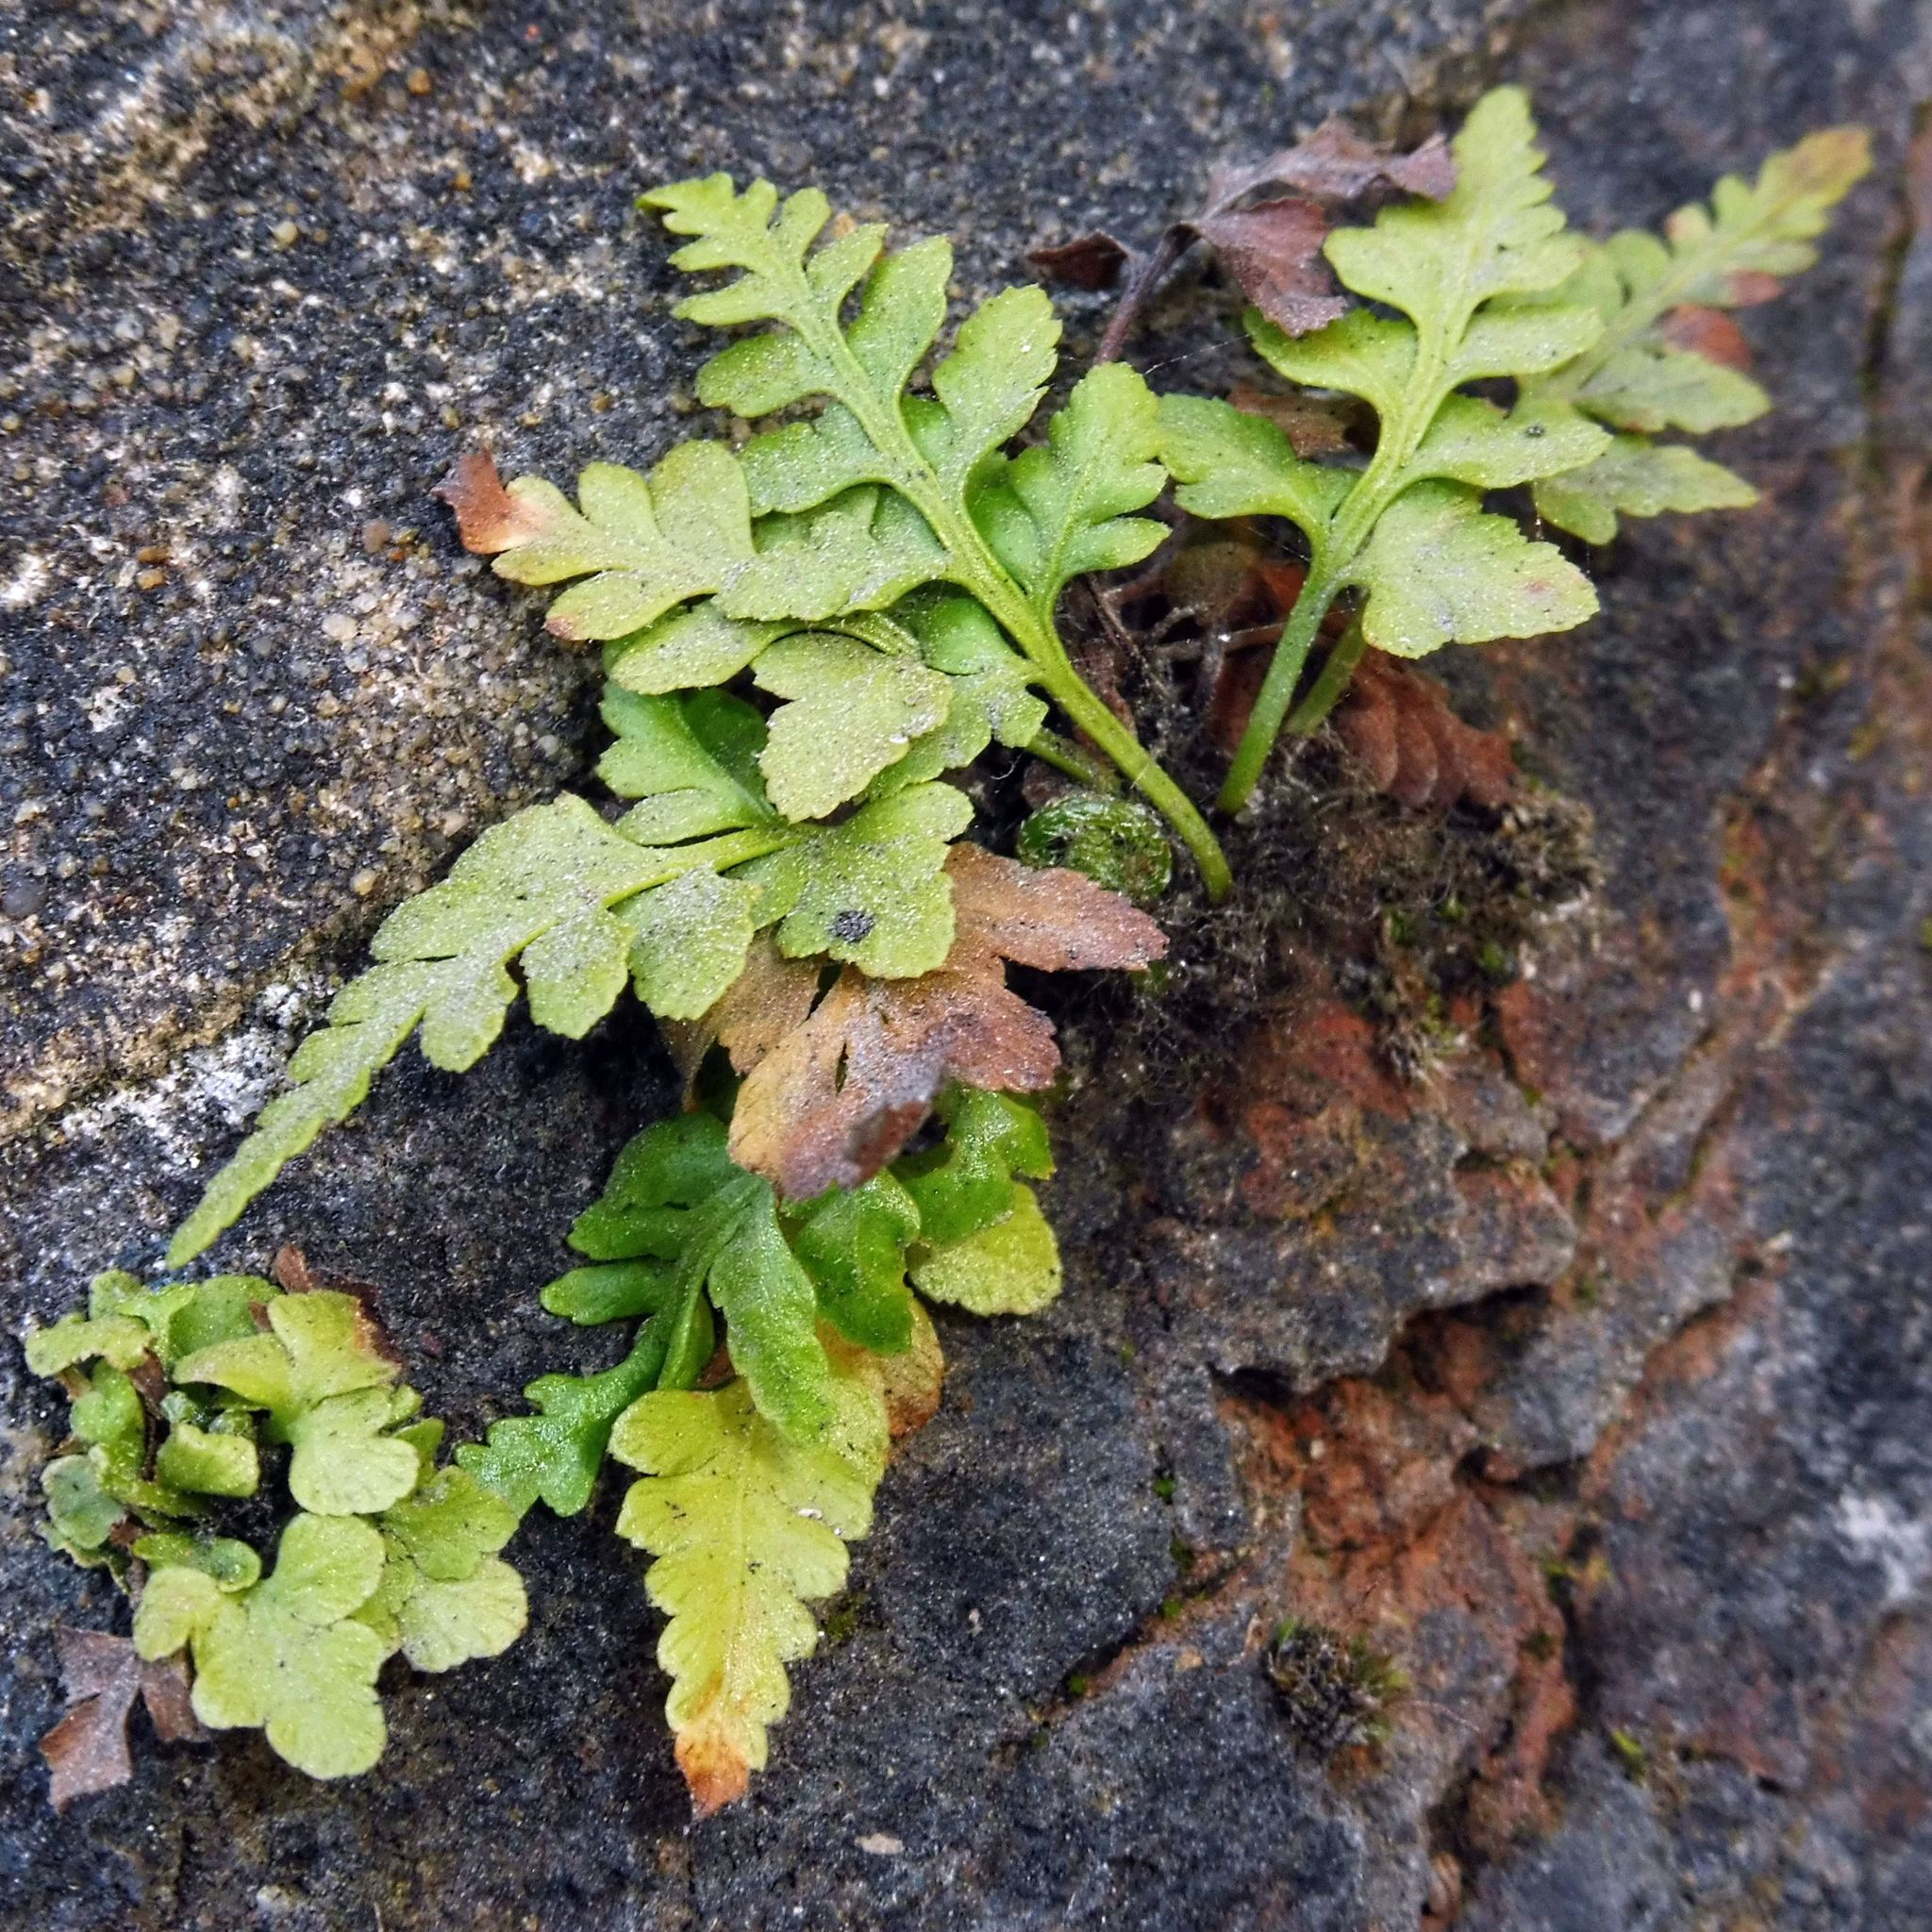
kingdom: Plantae
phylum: Tracheophyta
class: Polypodiopsida
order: Polypodiales
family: Aspleniaceae
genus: Asplenium
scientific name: Asplenium adiantum-nigrum
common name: Black spleenwort
